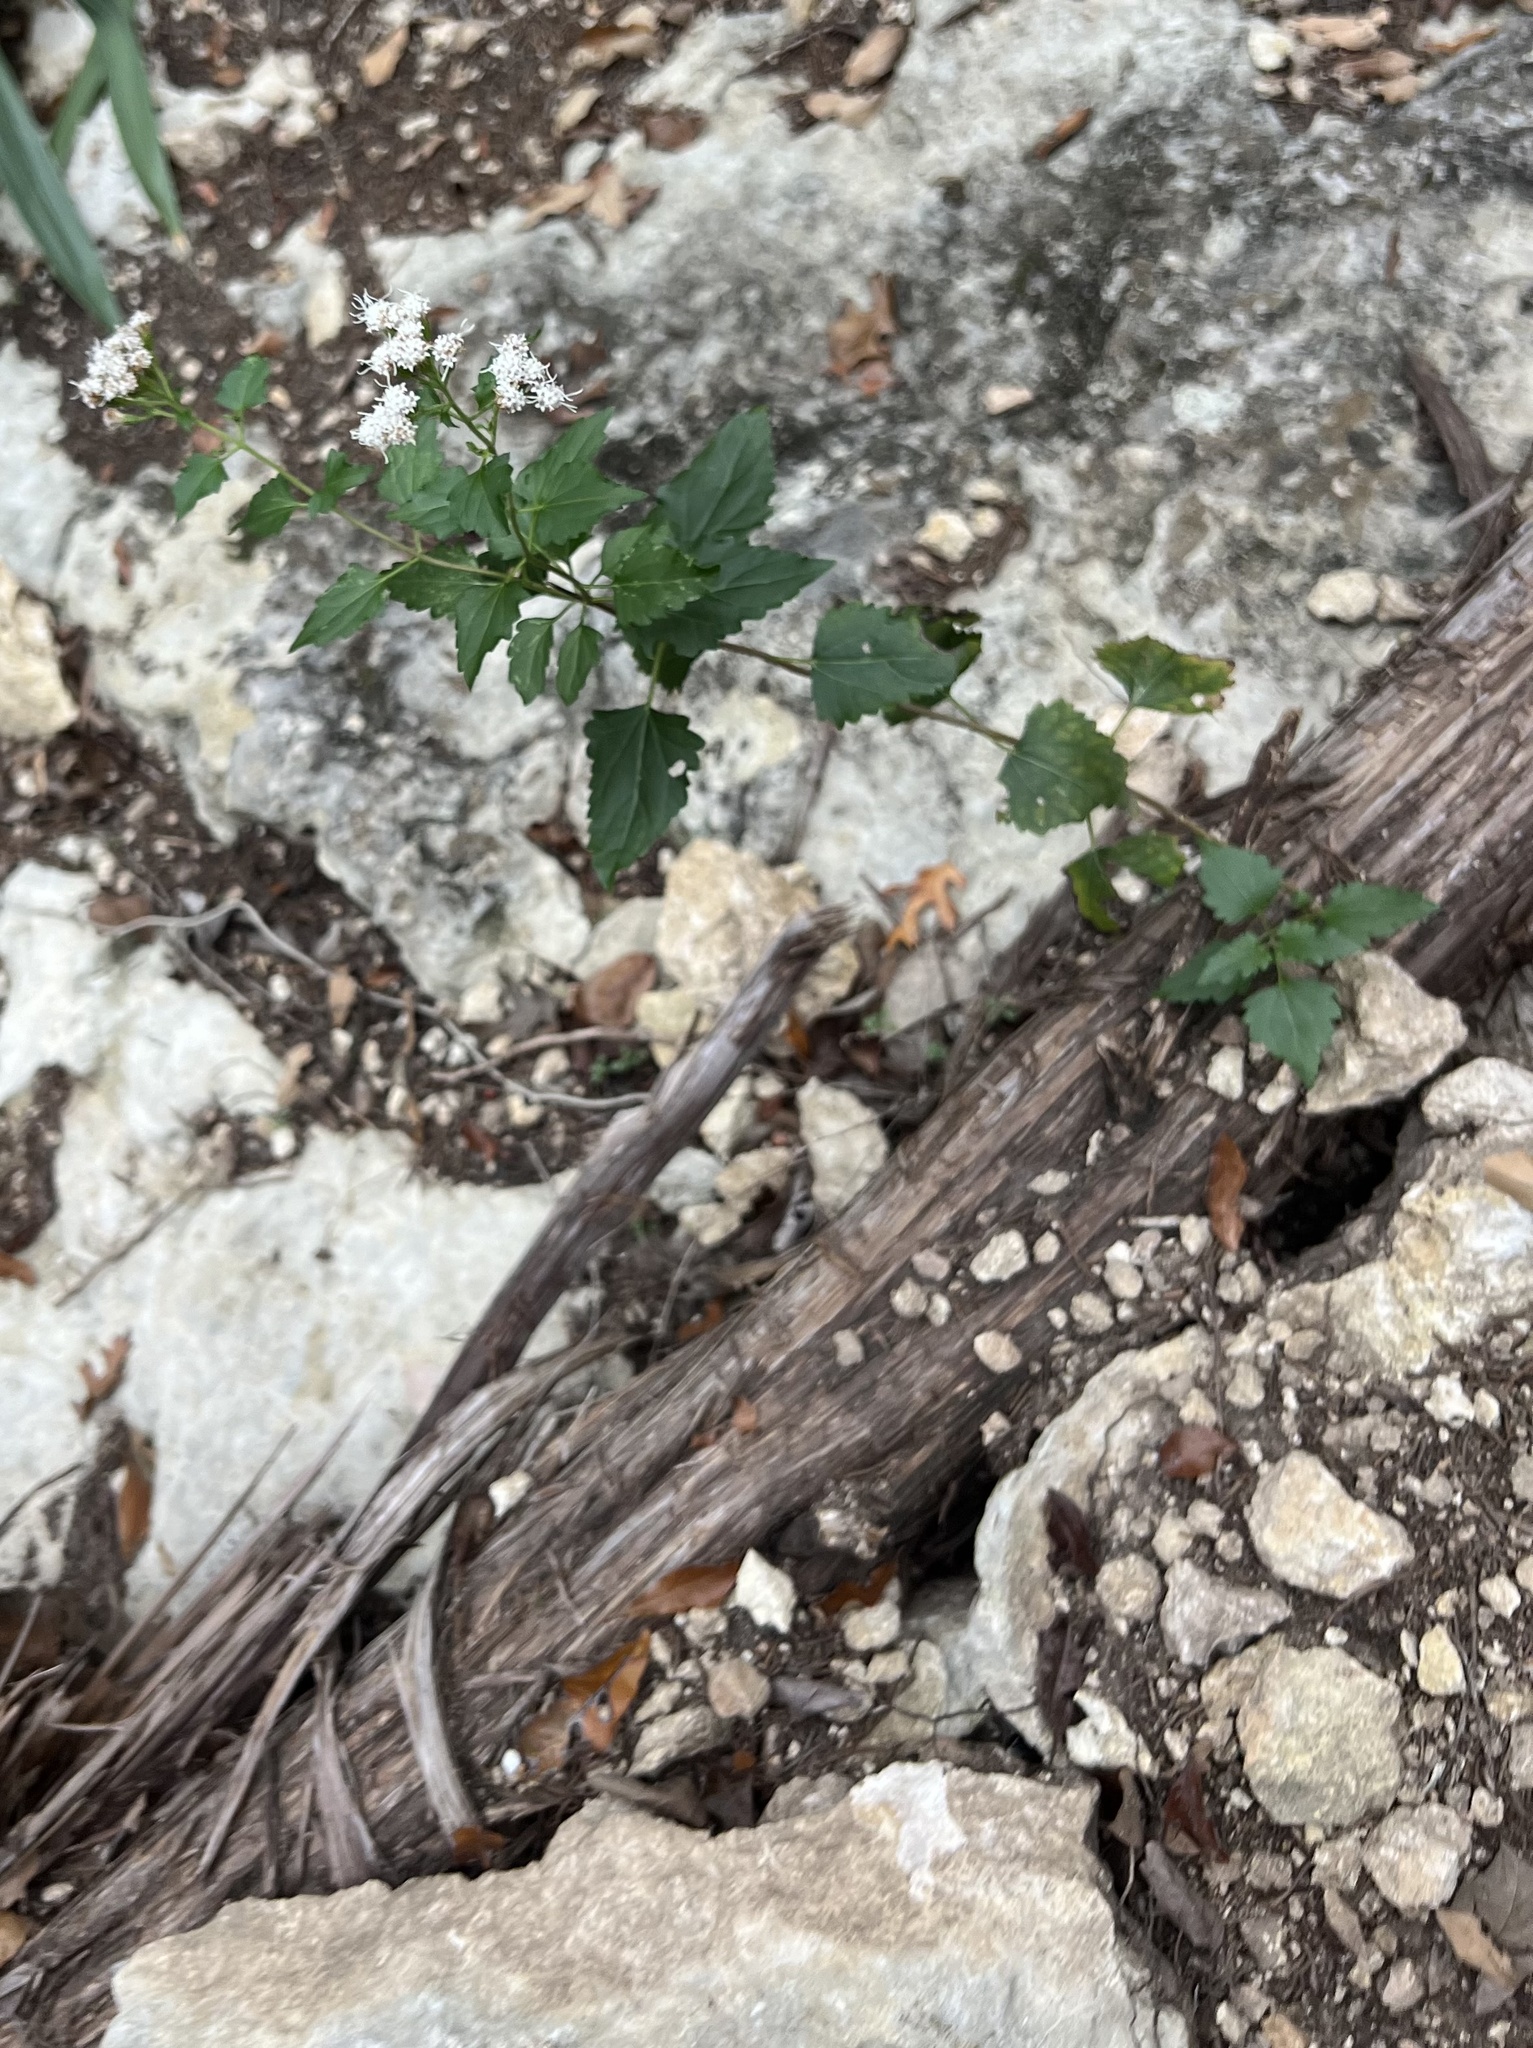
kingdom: Plantae
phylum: Tracheophyta
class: Magnoliopsida
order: Asterales
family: Asteraceae
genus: Ageratina
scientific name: Ageratina havanensis
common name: Havana snakeroot
